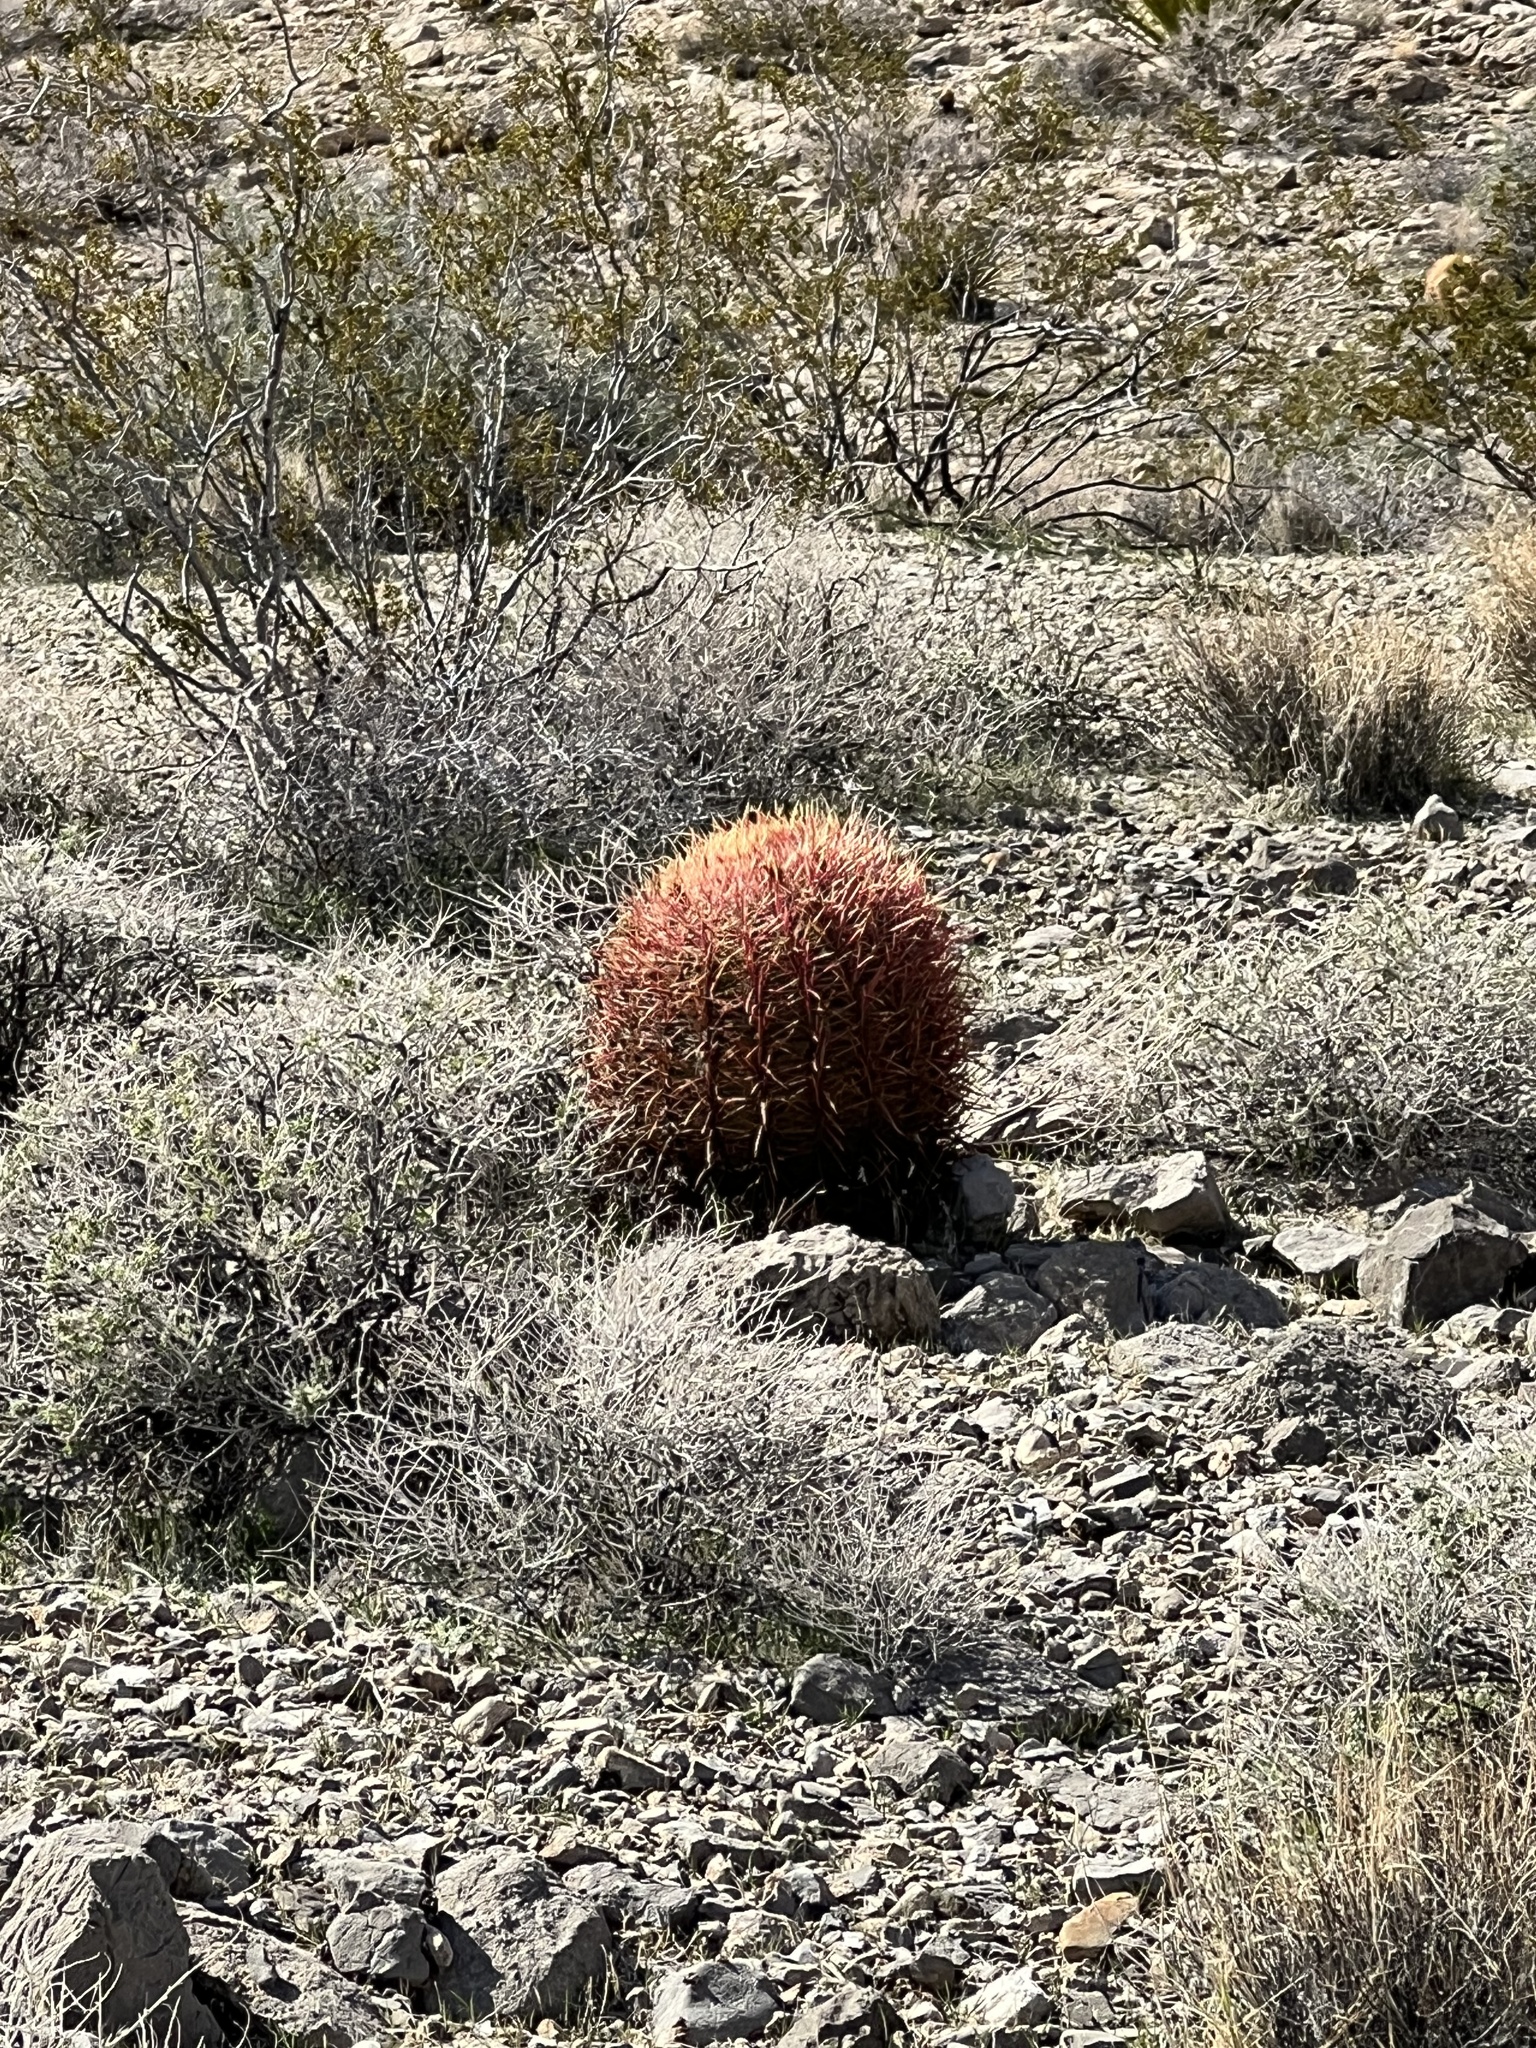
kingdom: Plantae
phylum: Tracheophyta
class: Magnoliopsida
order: Caryophyllales
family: Cactaceae
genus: Ferocactus
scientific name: Ferocactus cylindraceus
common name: California barrel cactus
